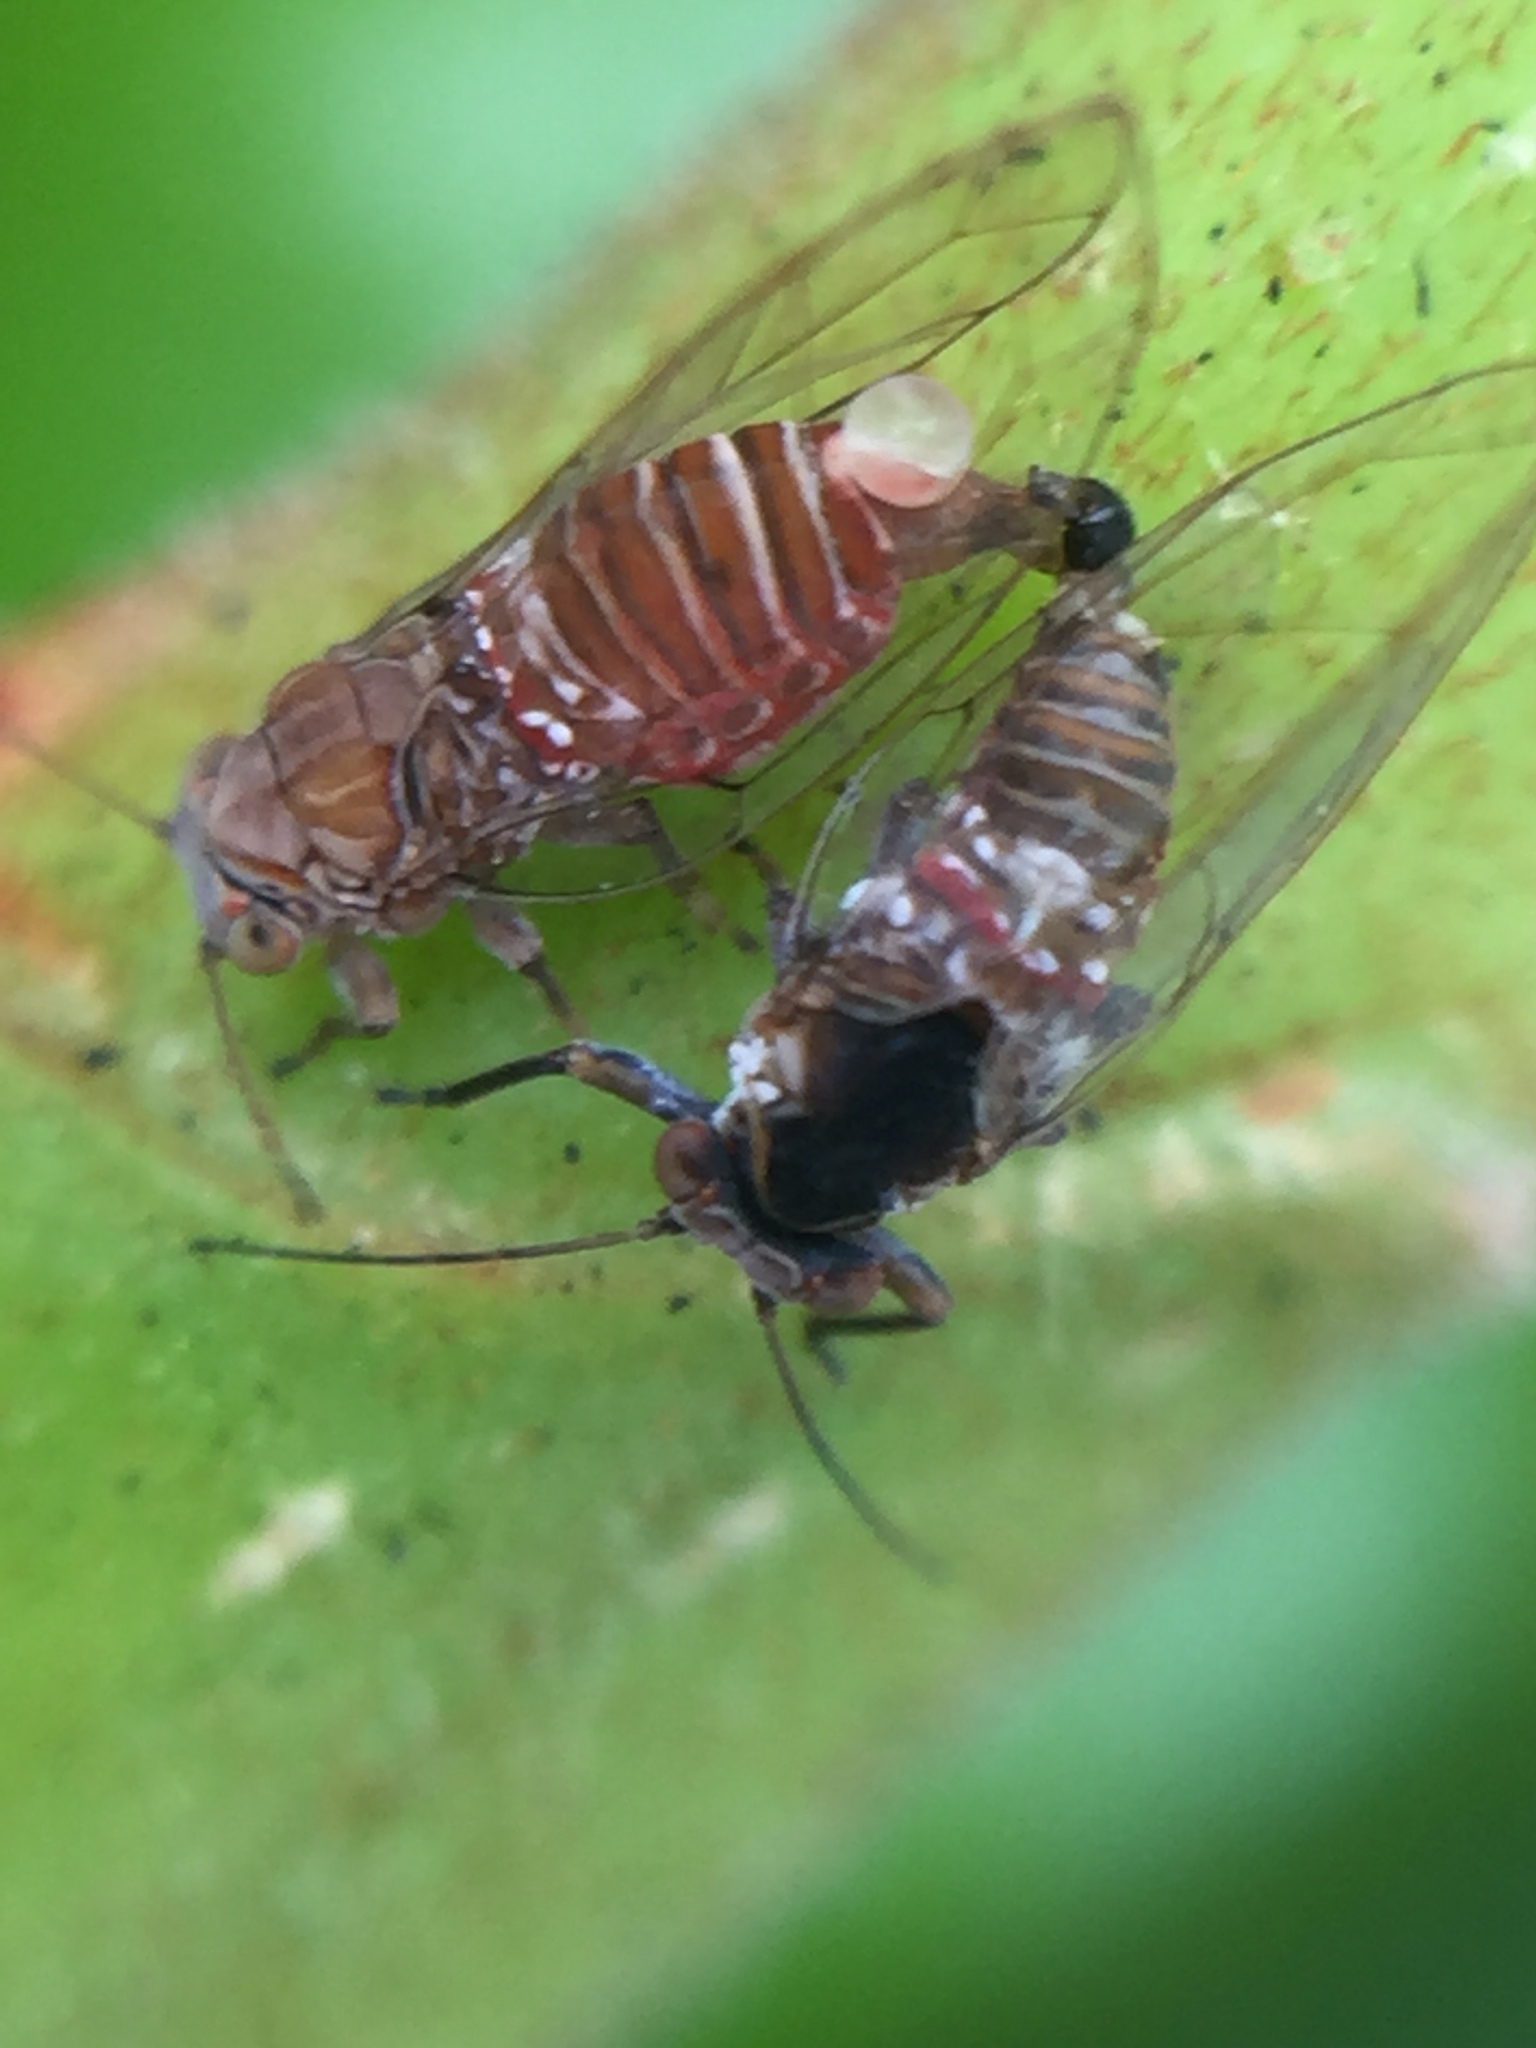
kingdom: Animalia
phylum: Arthropoda
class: Insecta
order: Hemiptera
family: Homotomidae
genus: Mycopsylla
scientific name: Mycopsylla obliqua
